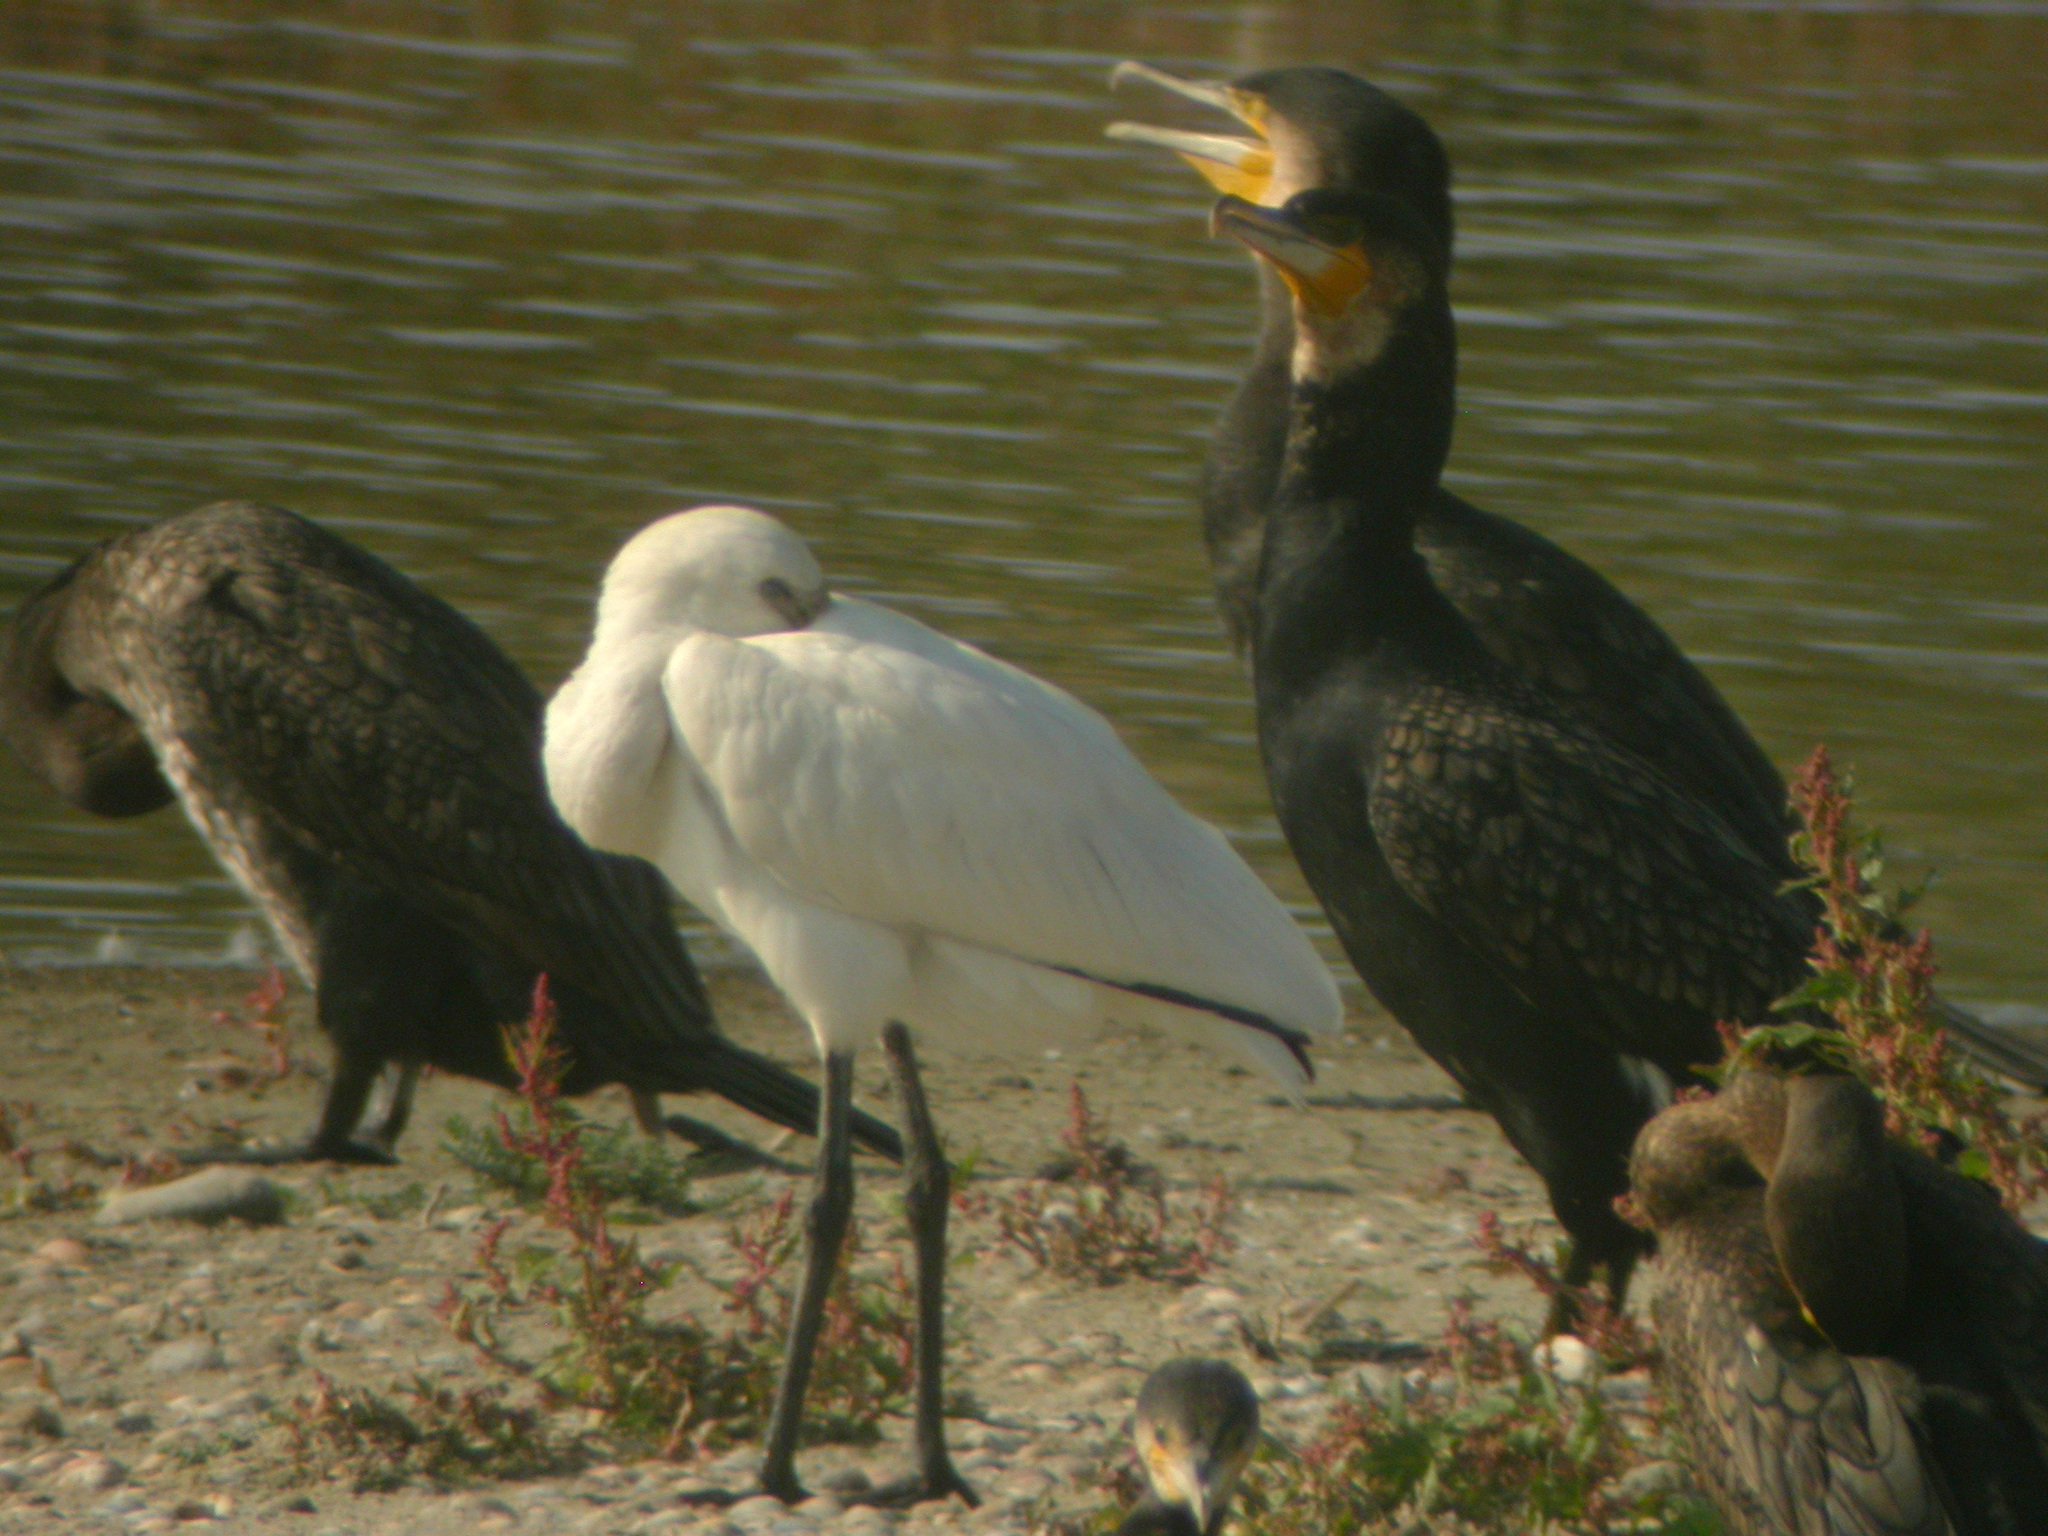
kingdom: Animalia
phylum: Chordata
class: Aves
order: Pelecaniformes
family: Threskiornithidae
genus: Platalea
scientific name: Platalea leucorodia
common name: Eurasian spoonbill
